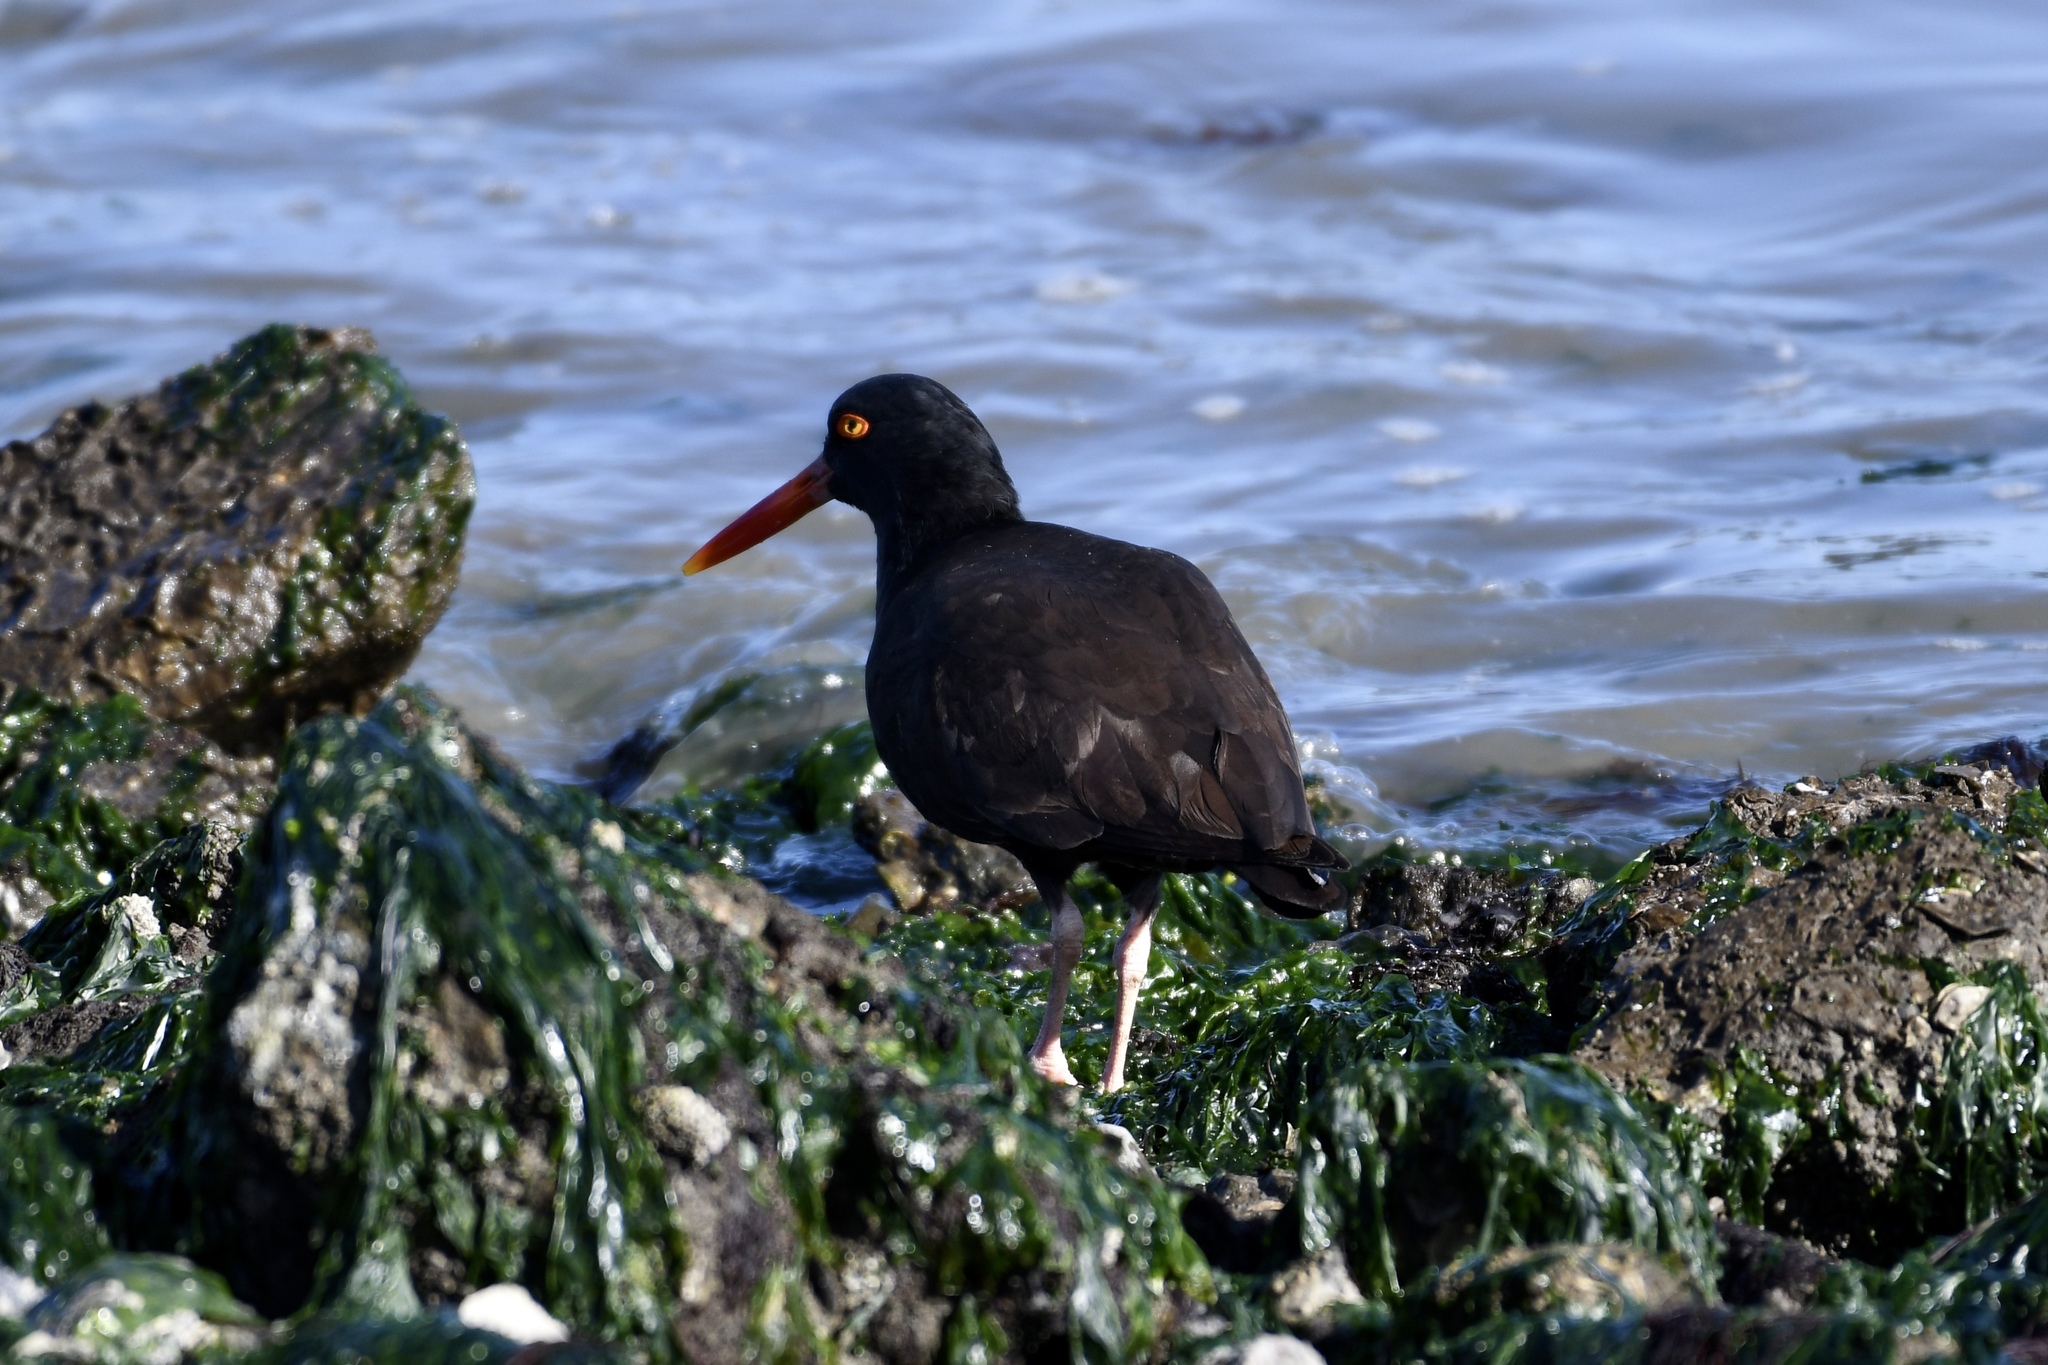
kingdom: Animalia
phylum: Chordata
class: Aves
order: Charadriiformes
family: Haematopodidae
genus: Haematopus
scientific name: Haematopus bachmani
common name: Black oystercatcher
